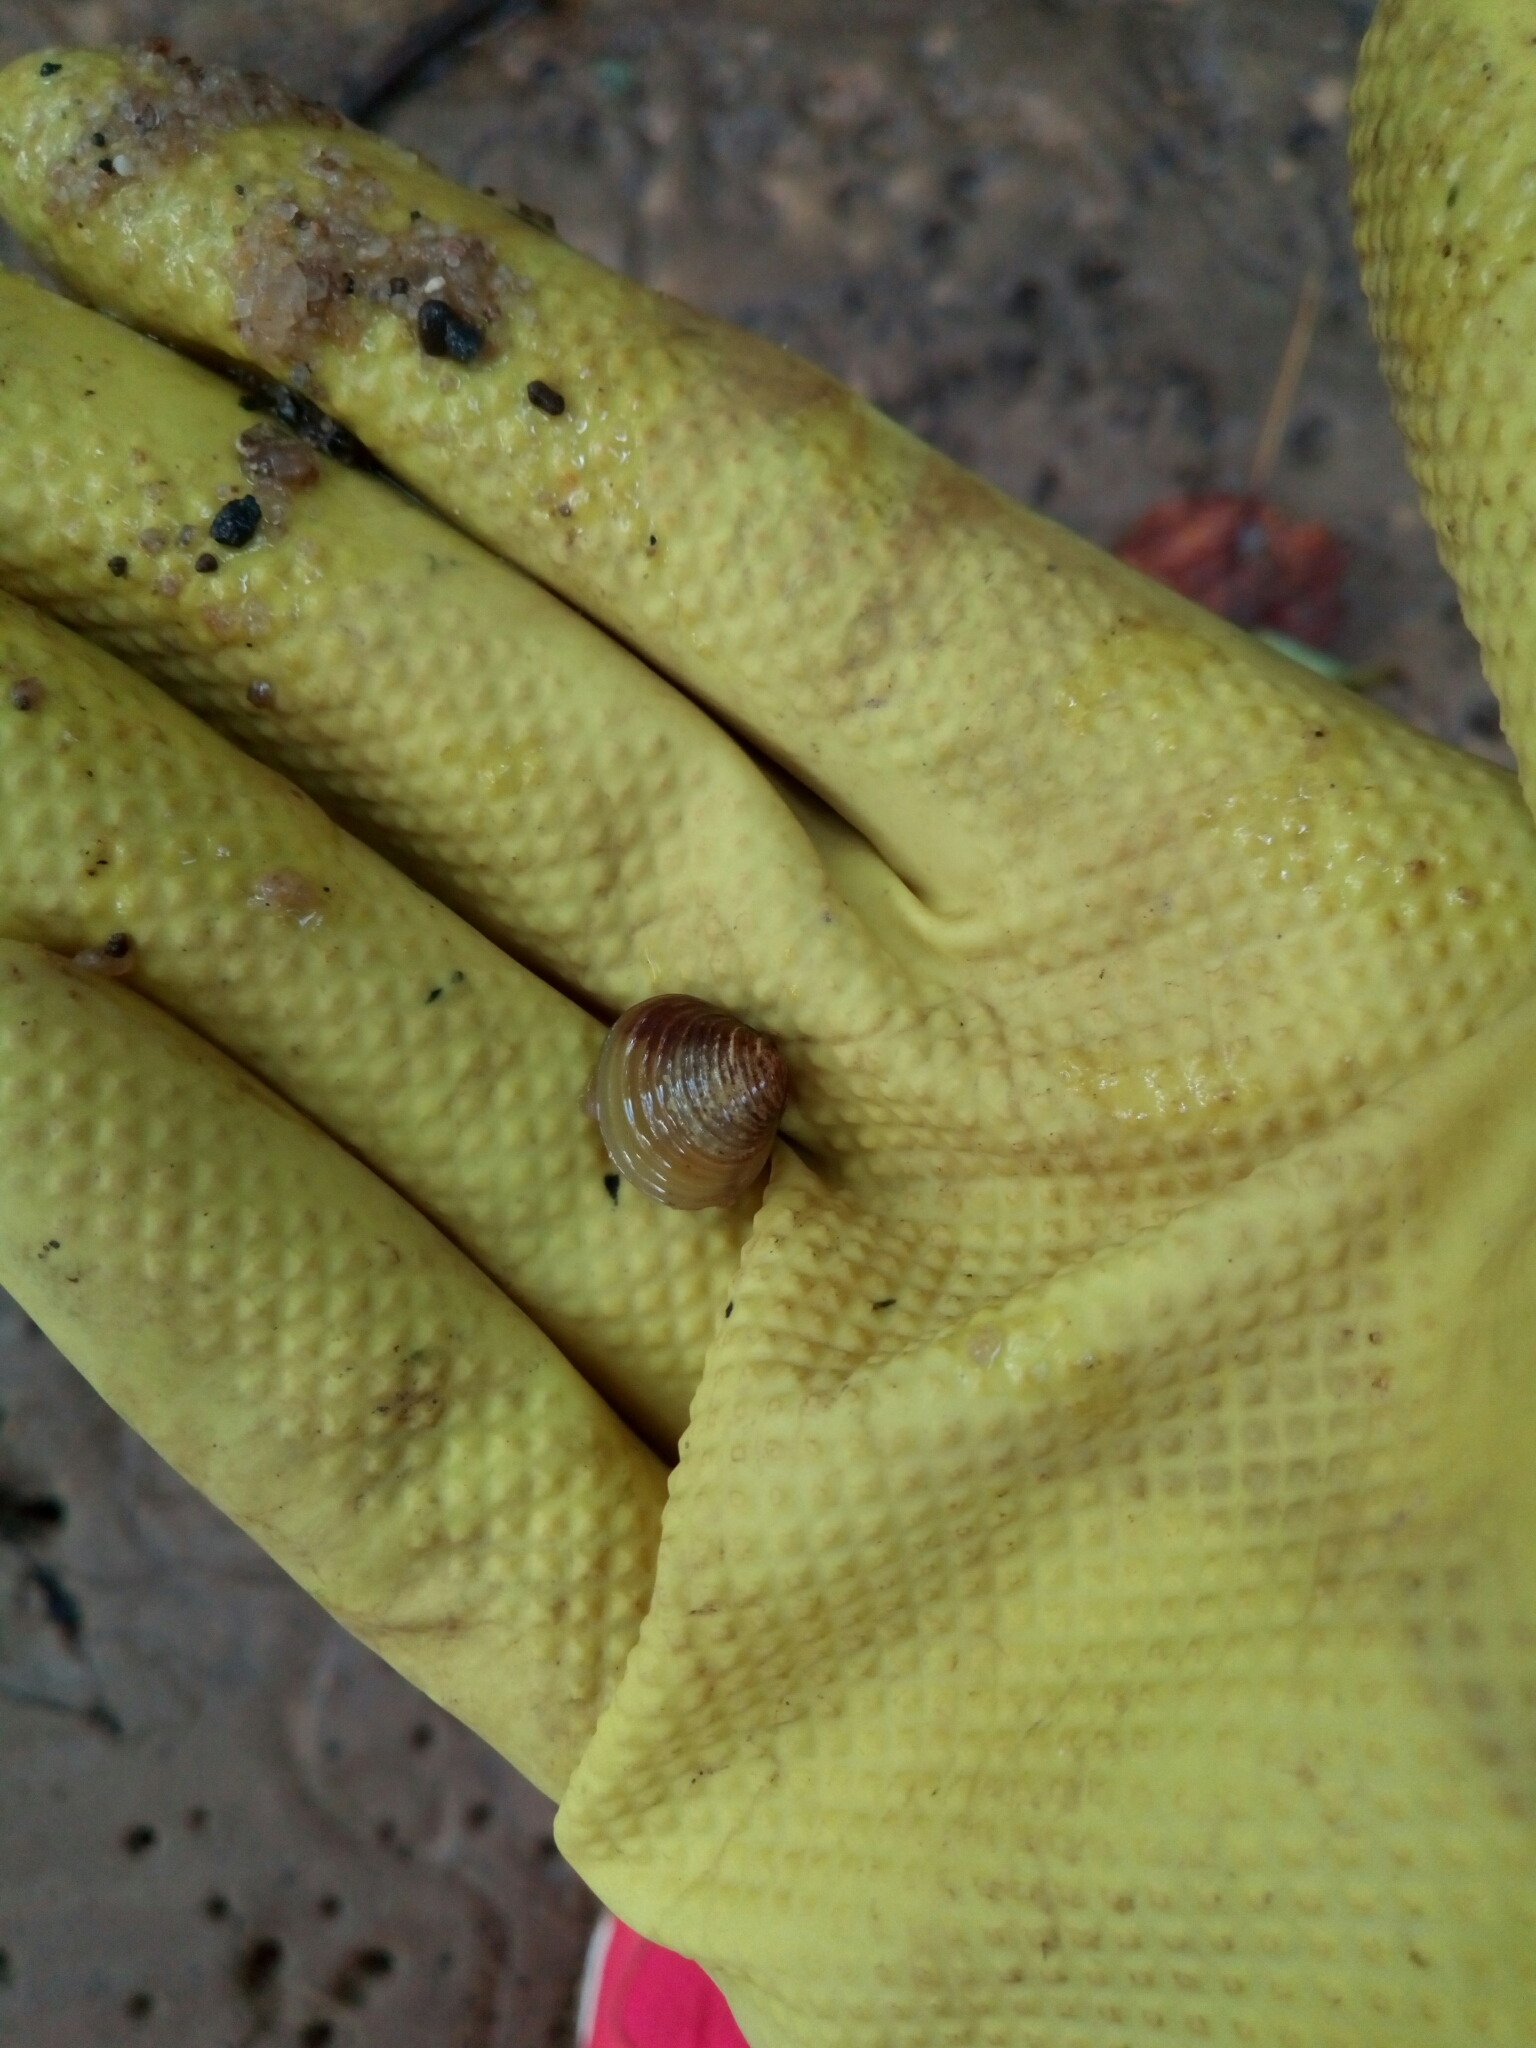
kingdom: Animalia
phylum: Mollusca
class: Bivalvia
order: Venerida
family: Cyrenidae
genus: Corbicula
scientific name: Corbicula fluminea
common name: Asian clam
